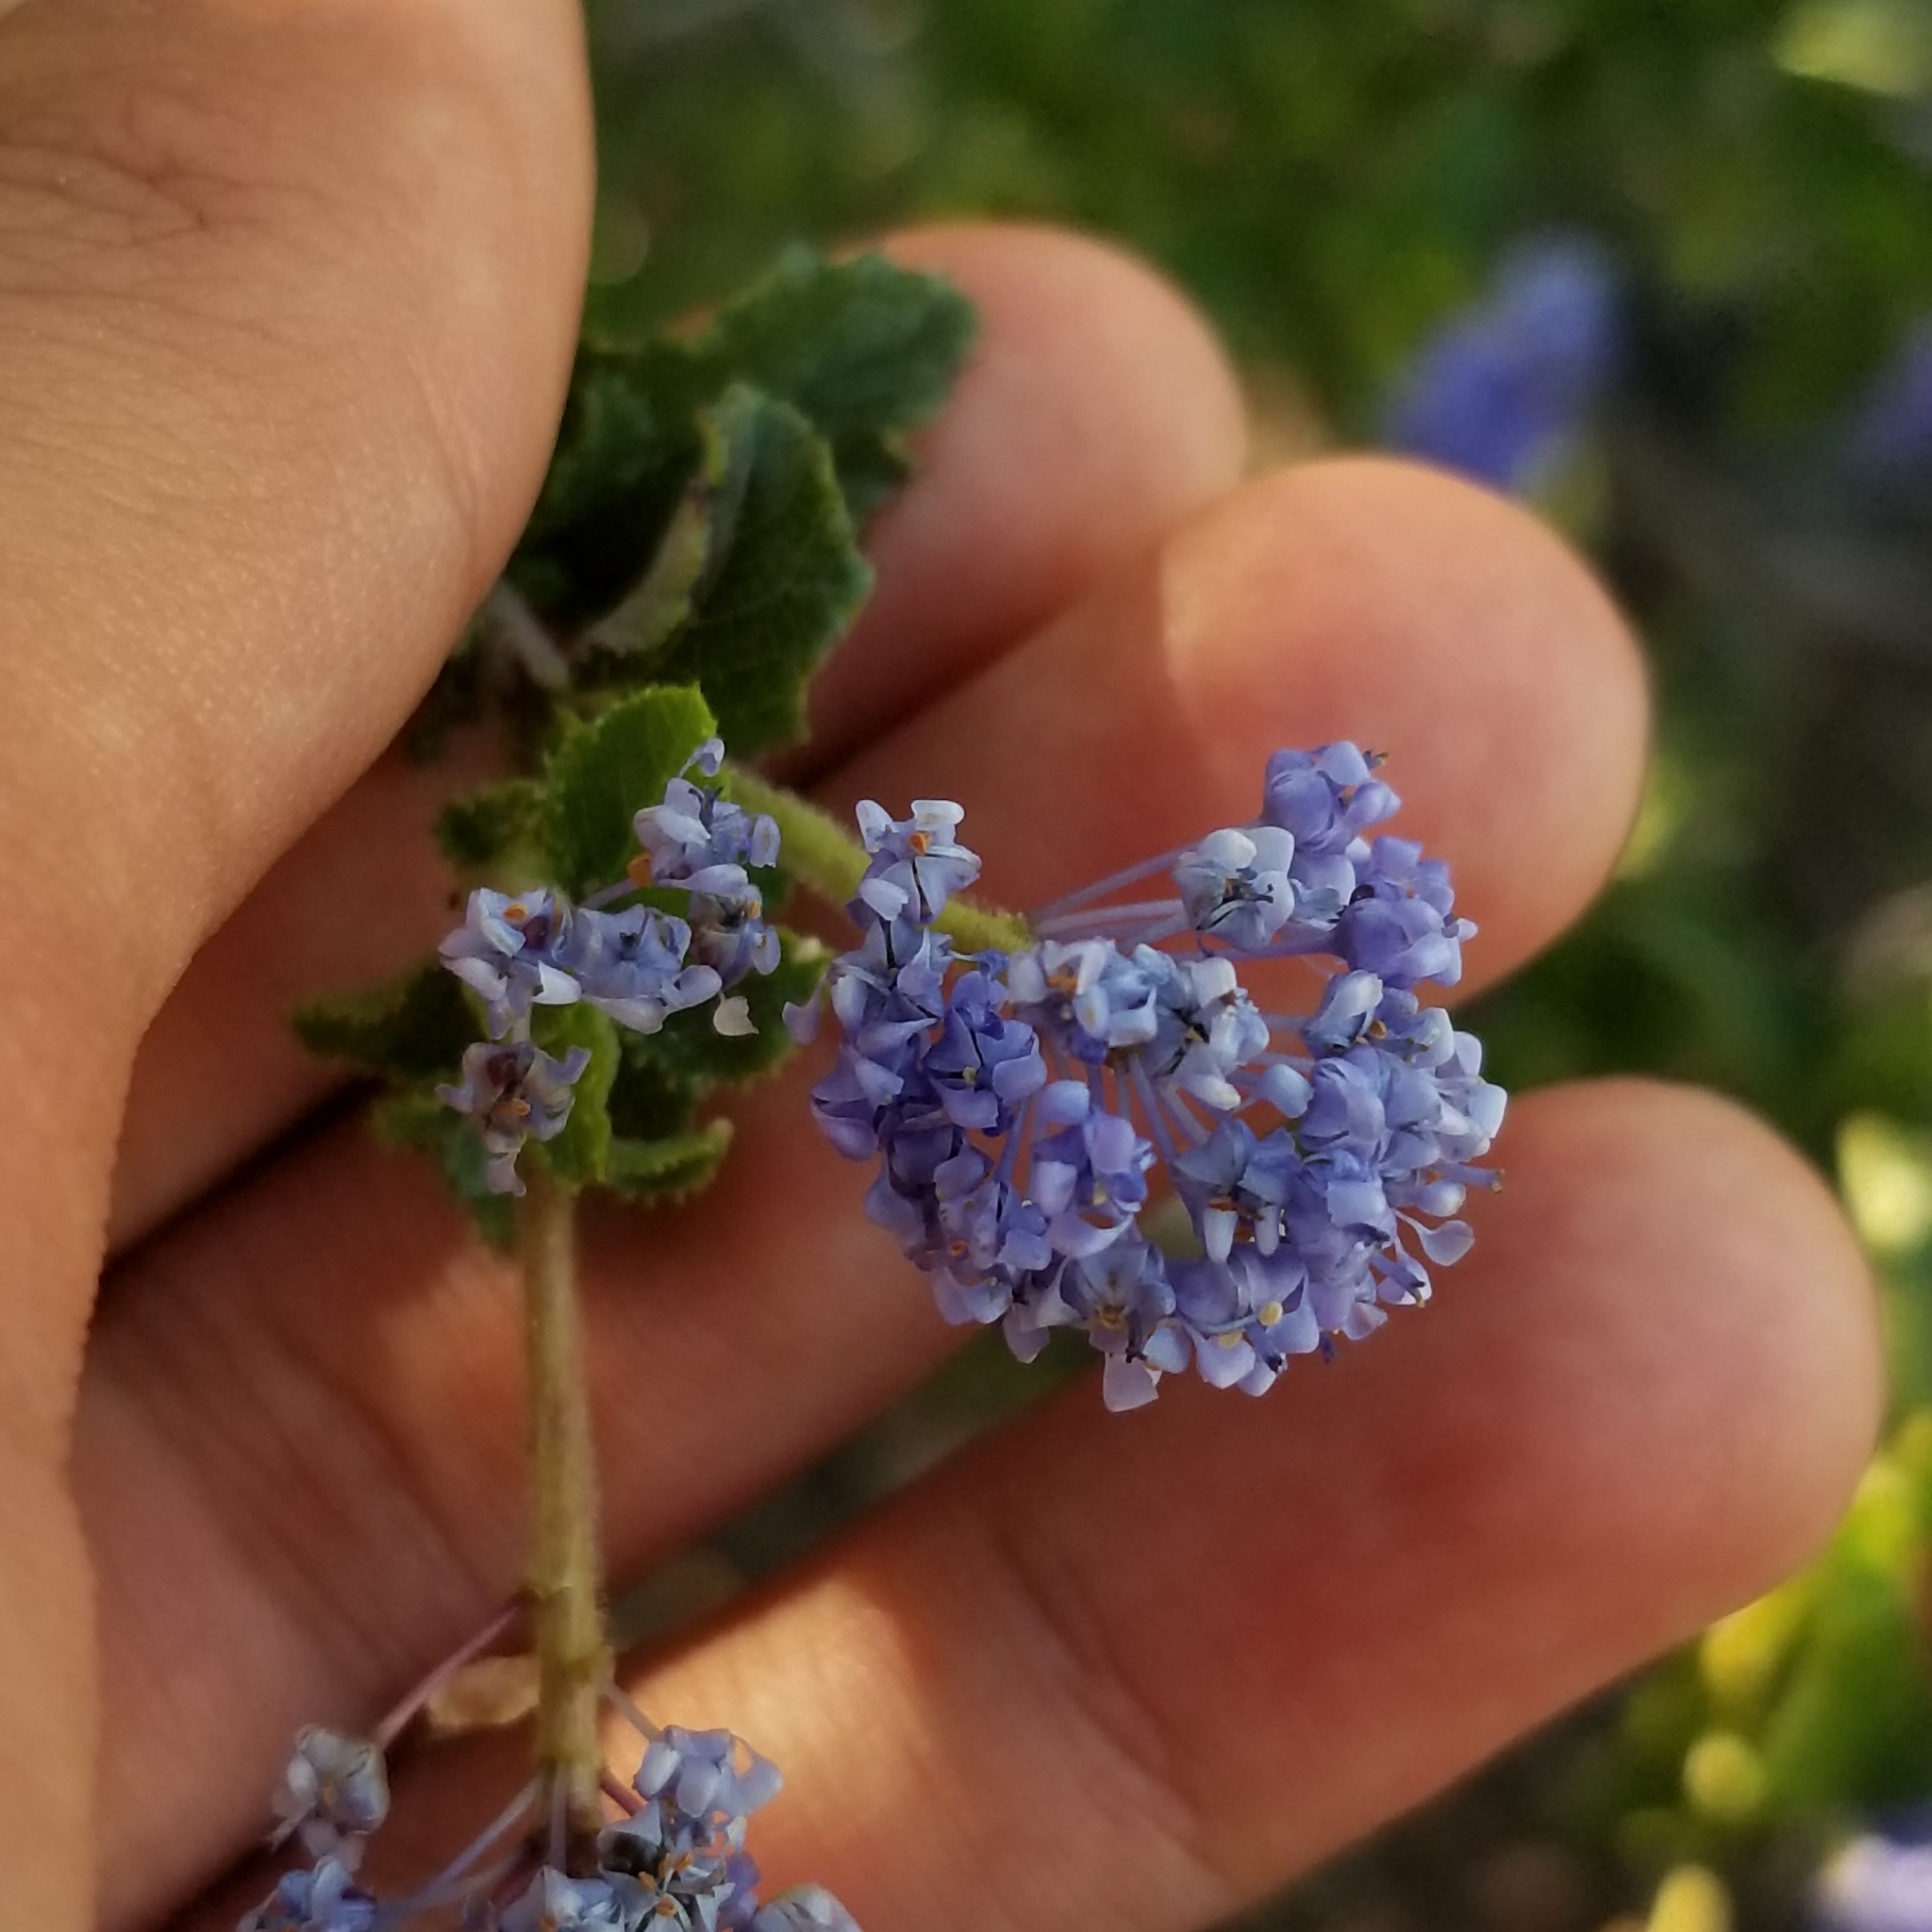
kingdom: Plantae
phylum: Tracheophyta
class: Magnoliopsida
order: Rosales
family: Rhamnaceae
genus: Ceanothus
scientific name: Ceanothus foliosus
